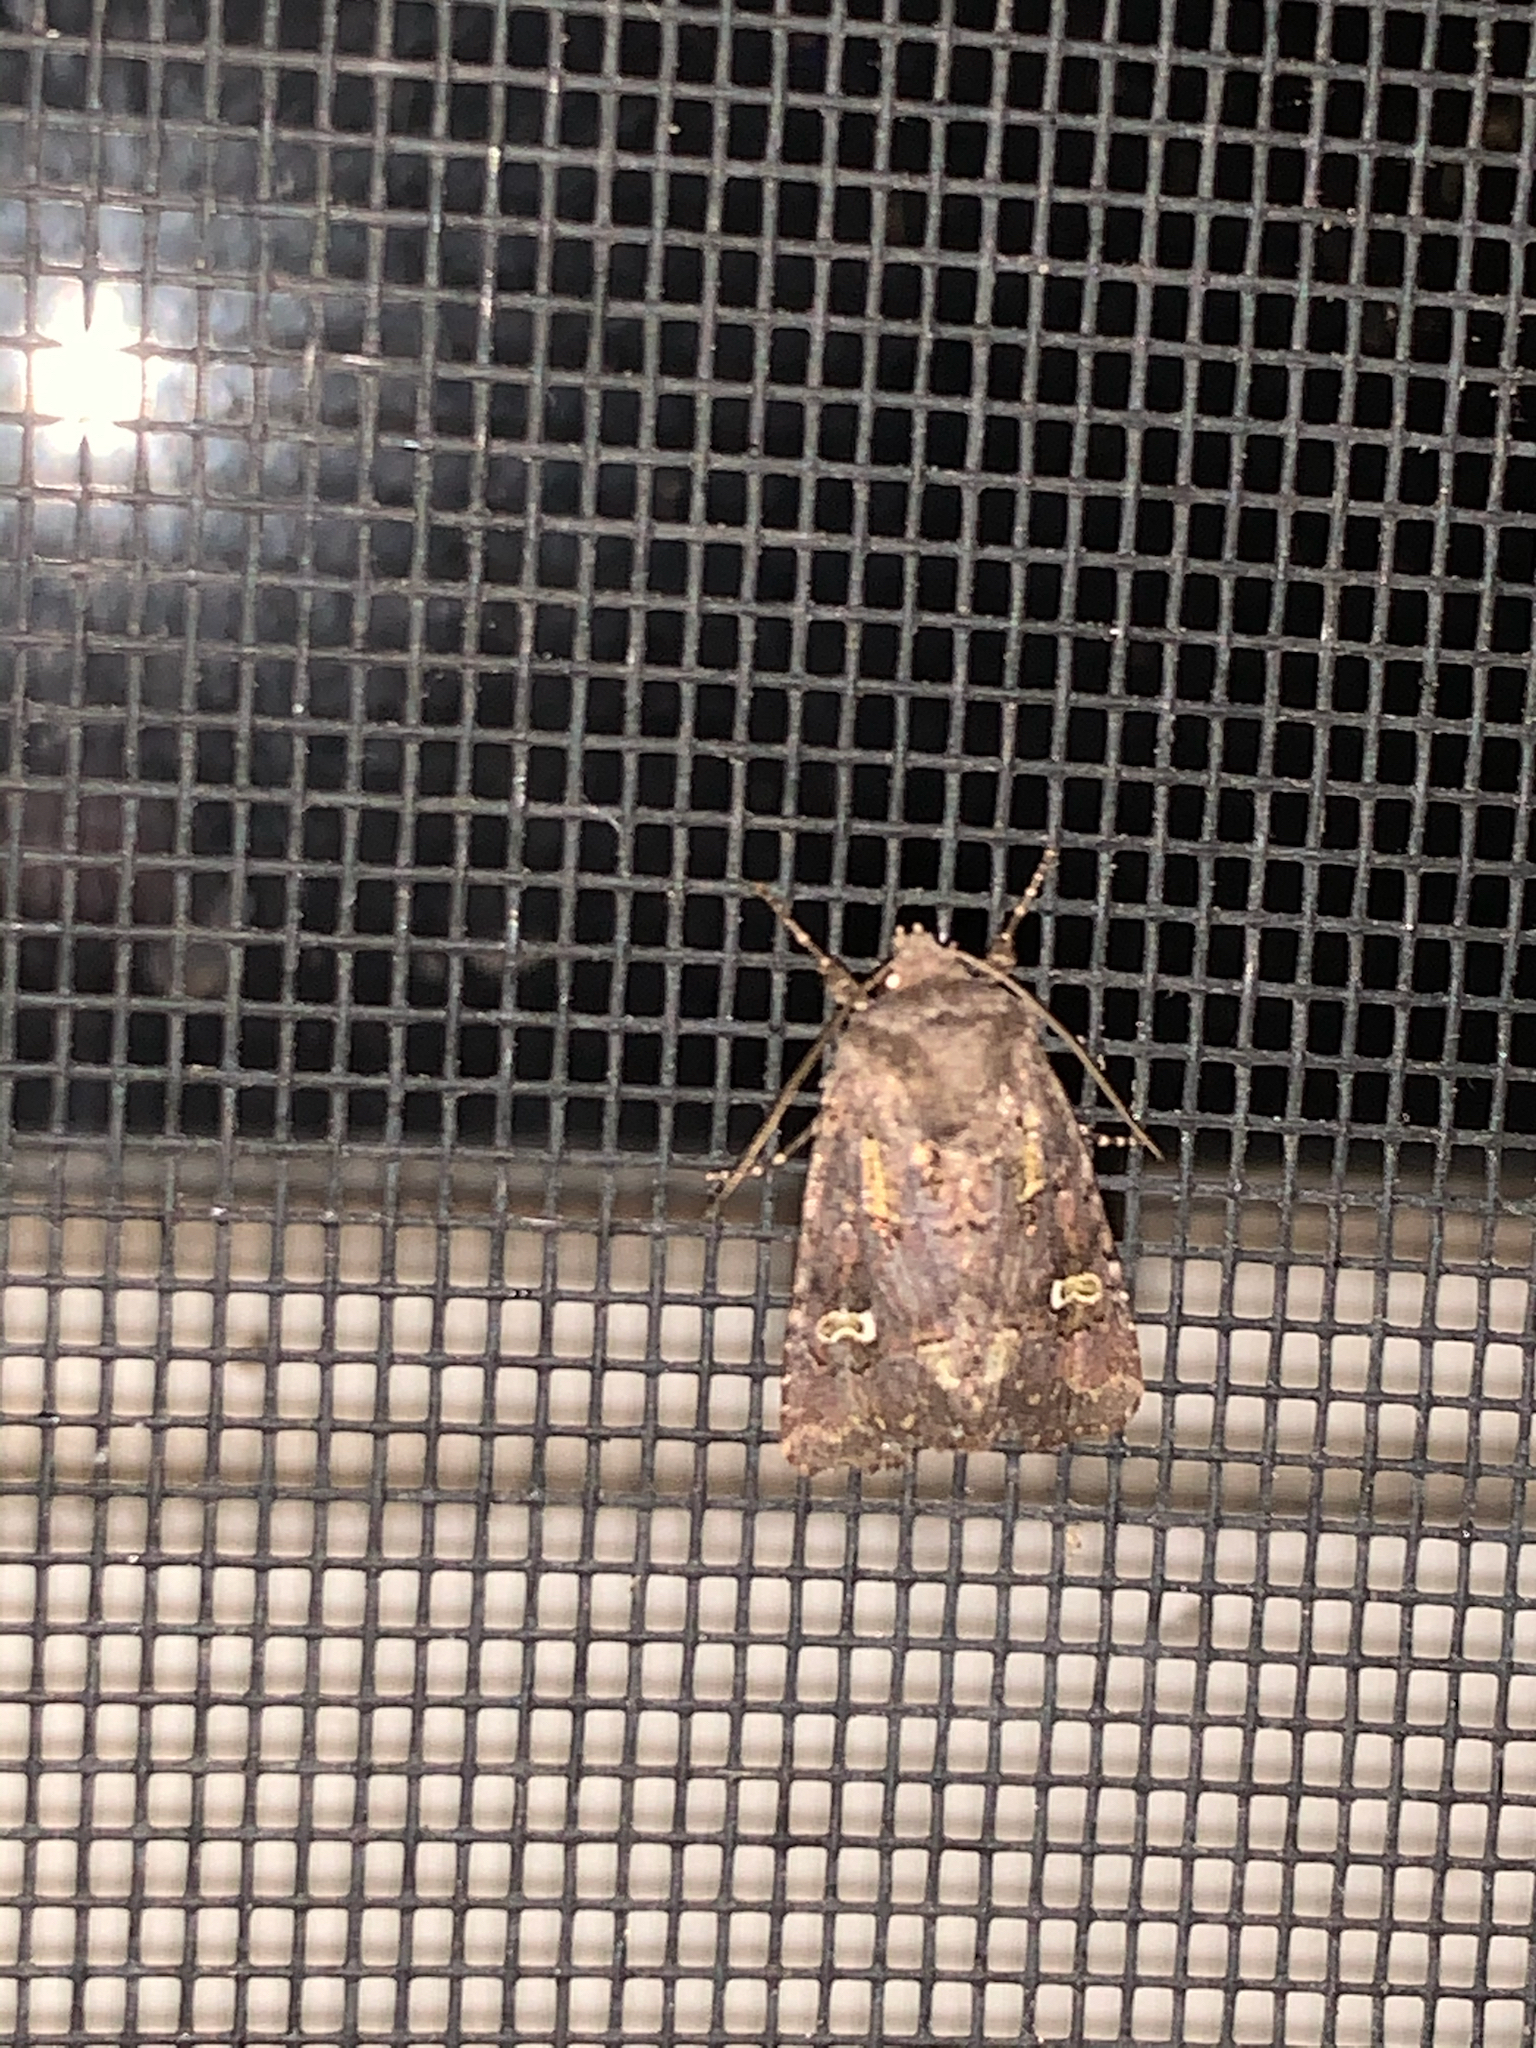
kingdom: Animalia
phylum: Arthropoda
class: Insecta
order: Lepidoptera
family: Noctuidae
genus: Lacinipolia
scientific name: Lacinipolia renigera
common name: Kidney-spotted minor
